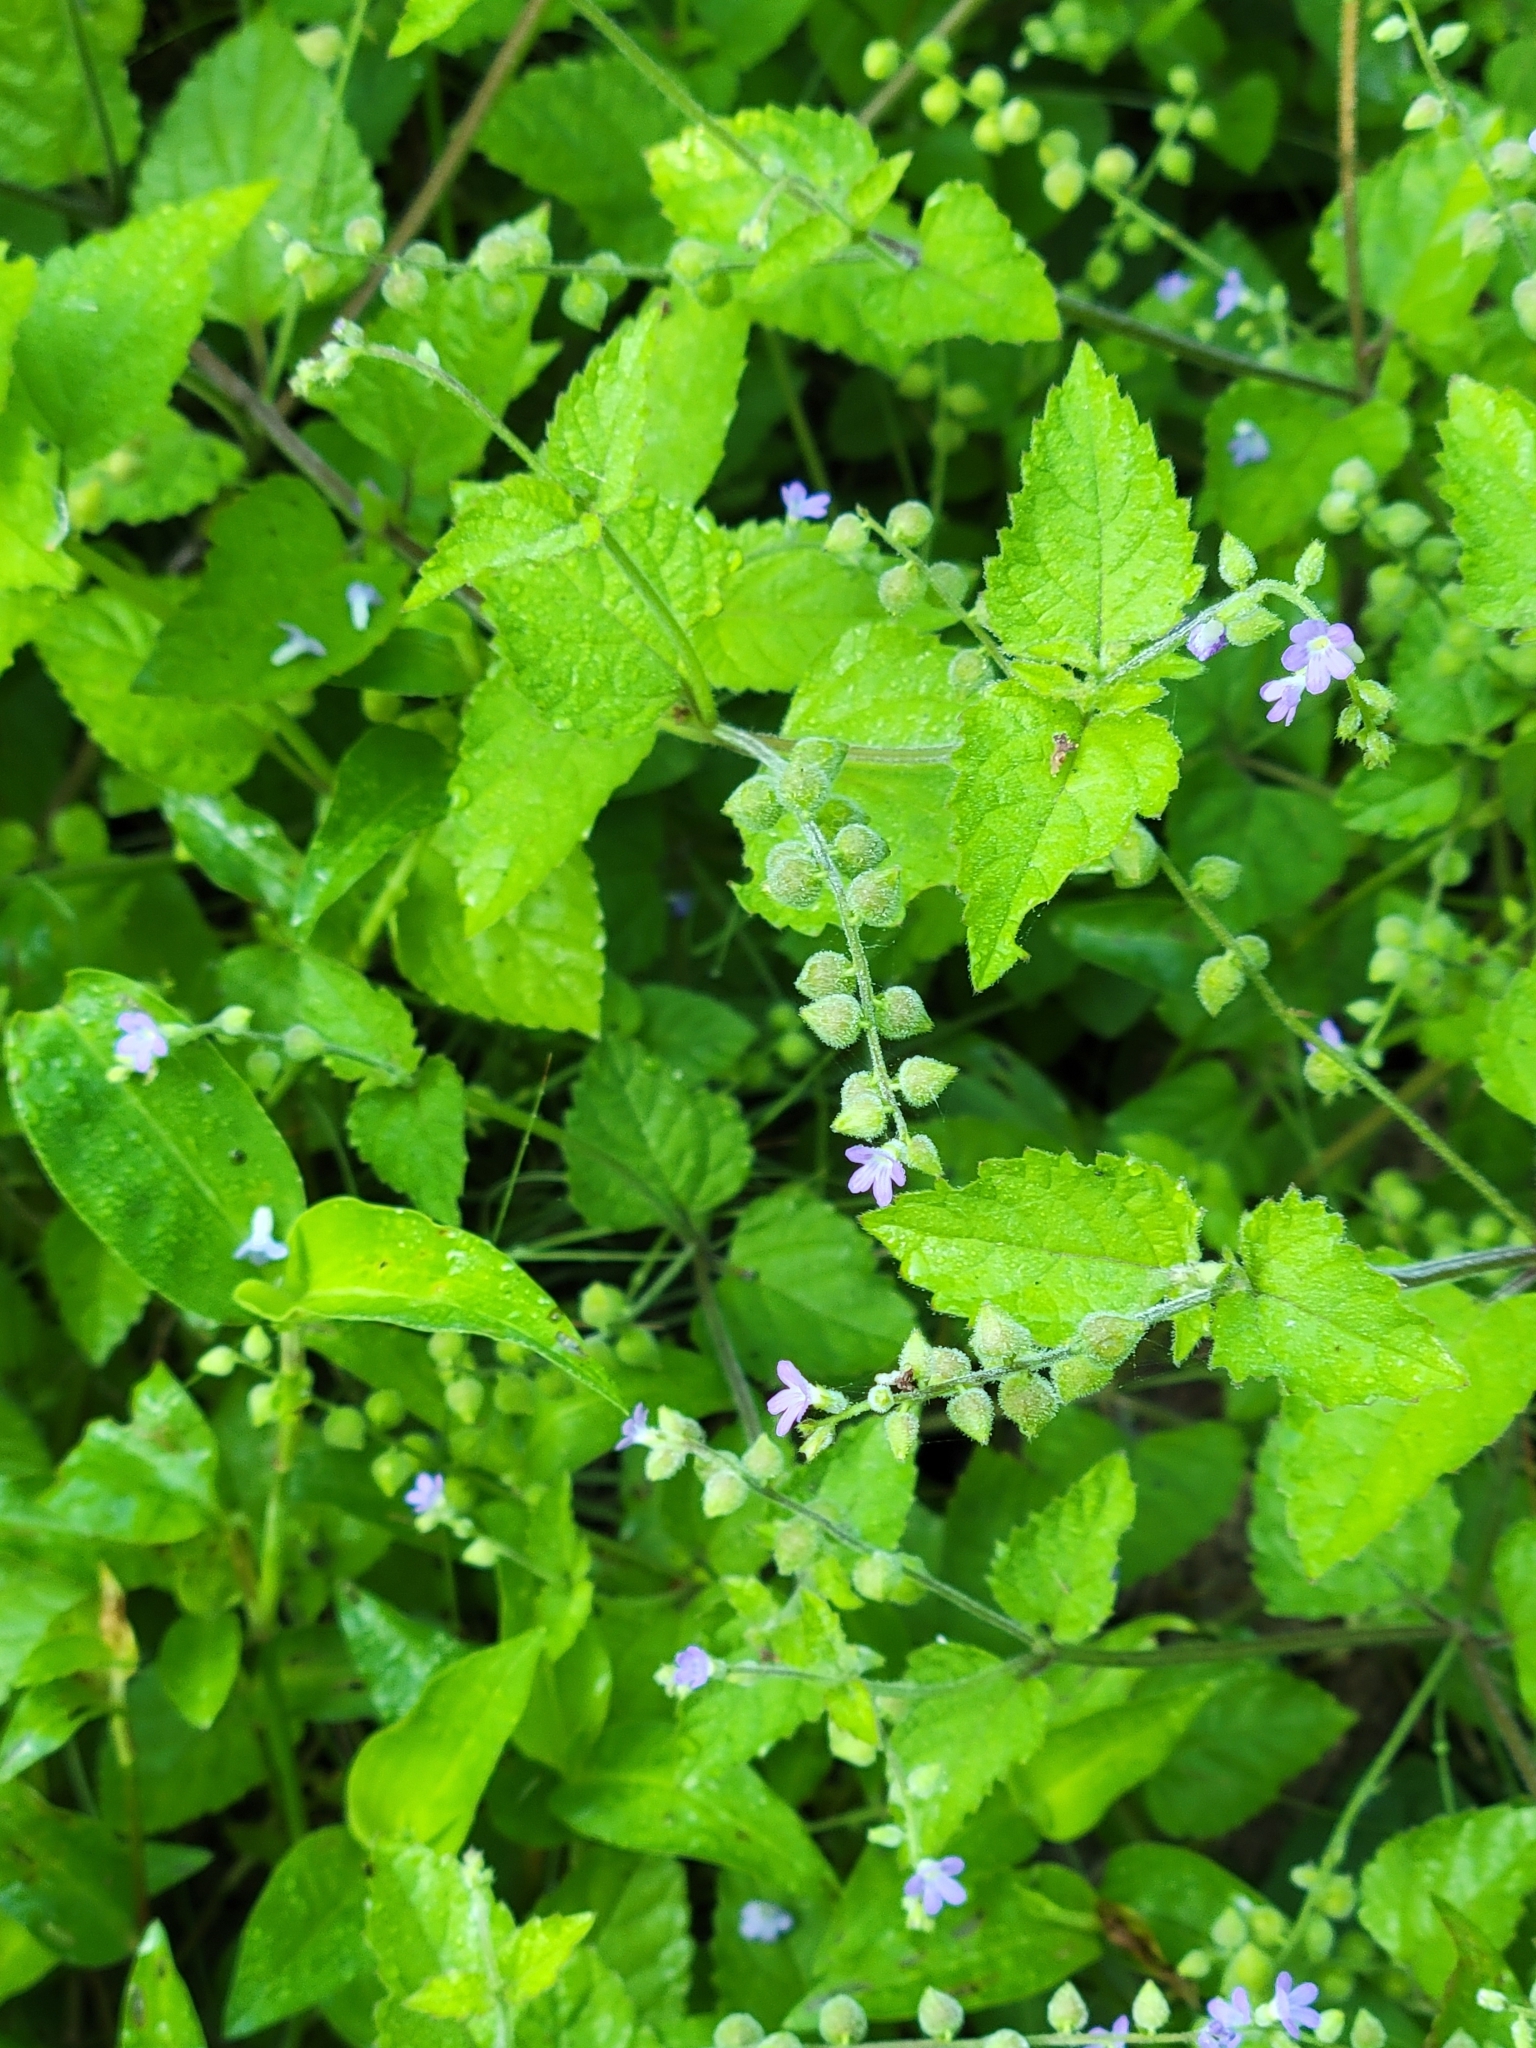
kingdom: Plantae
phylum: Tracheophyta
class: Magnoliopsida
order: Lamiales
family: Verbenaceae
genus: Priva
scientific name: Priva lappulacea
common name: Fasten-'pon-coat
